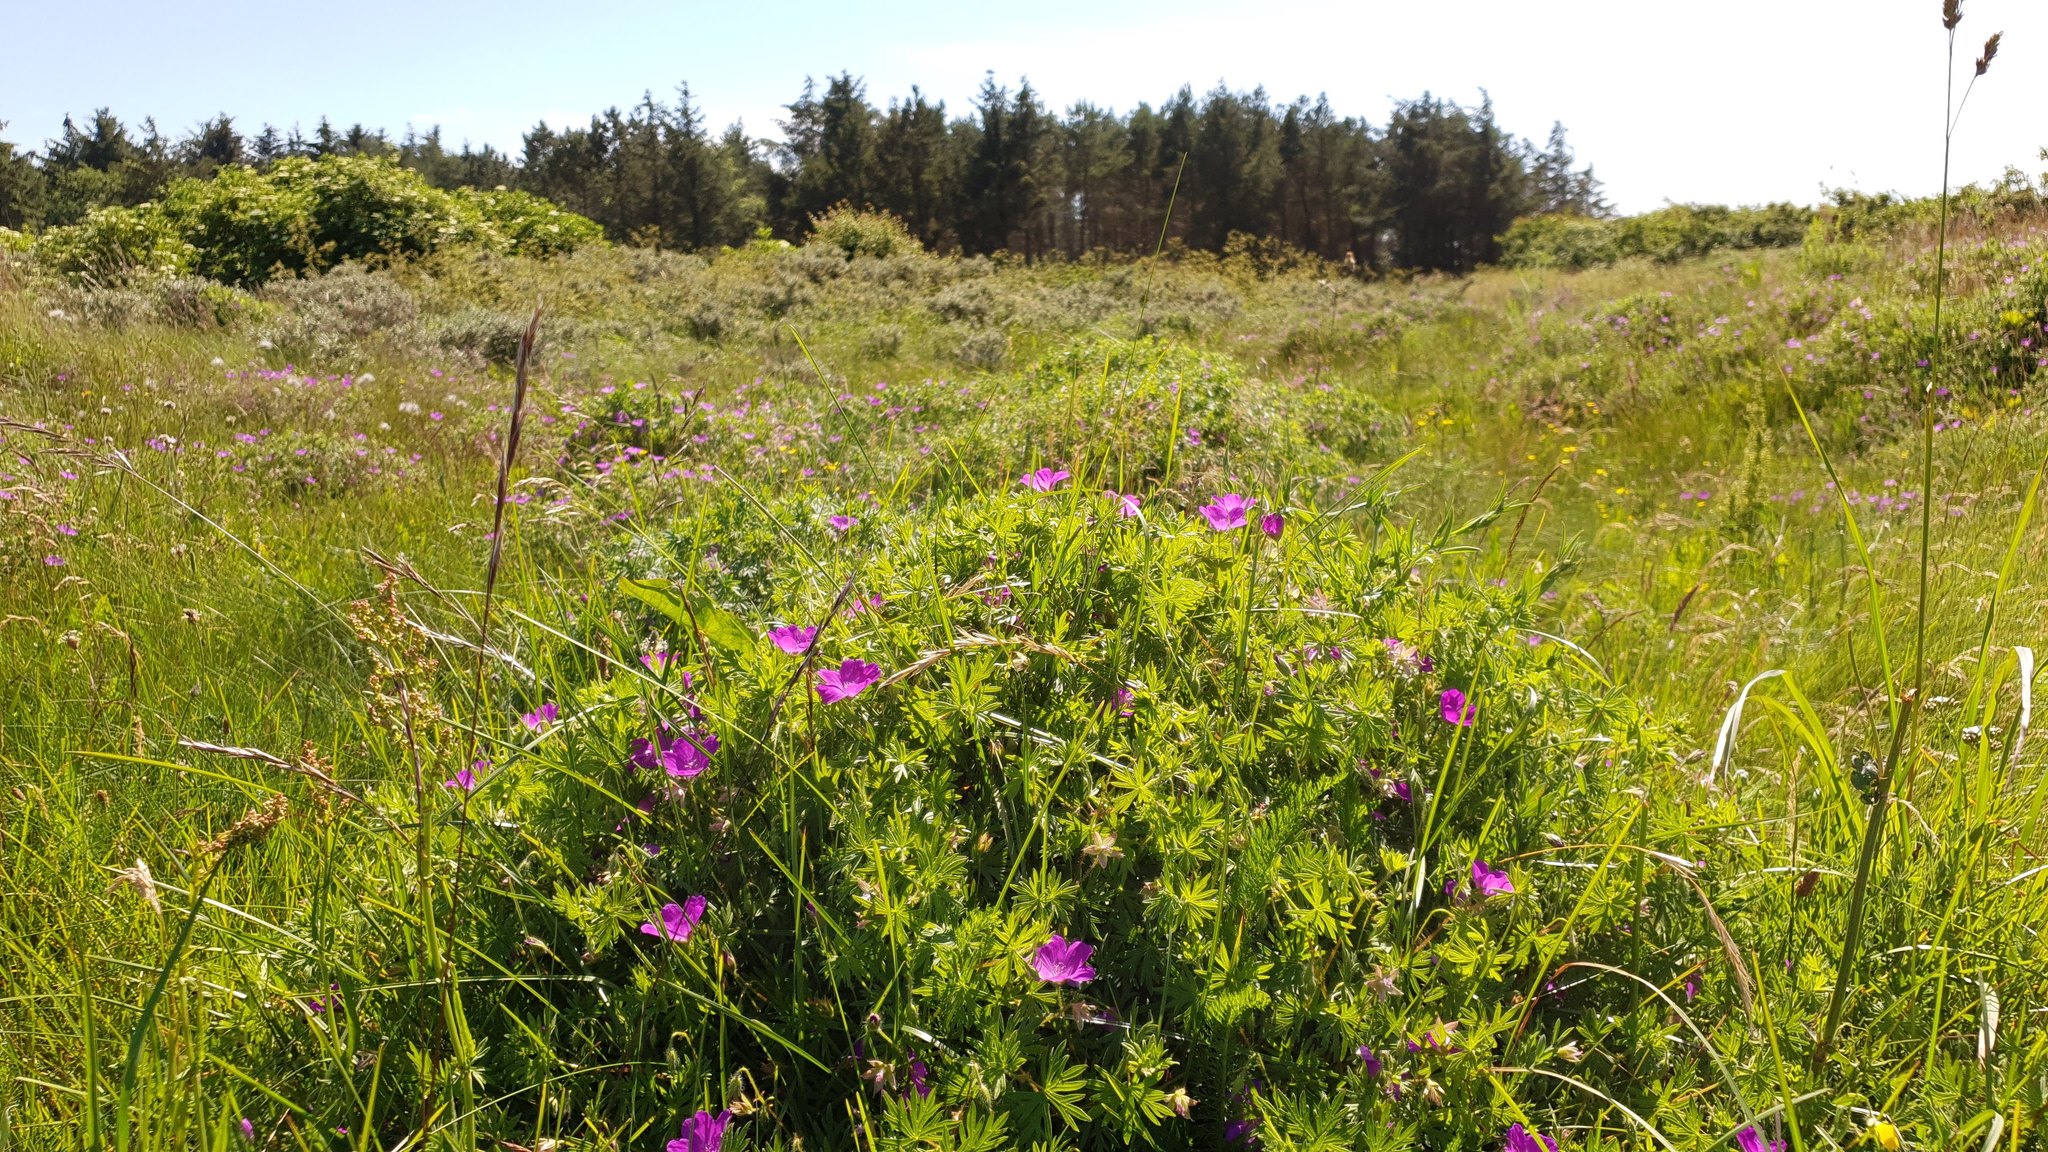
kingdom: Plantae
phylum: Tracheophyta
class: Magnoliopsida
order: Geraniales
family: Geraniaceae
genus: Geranium
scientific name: Geranium sanguineum
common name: Bloody crane's-bill
